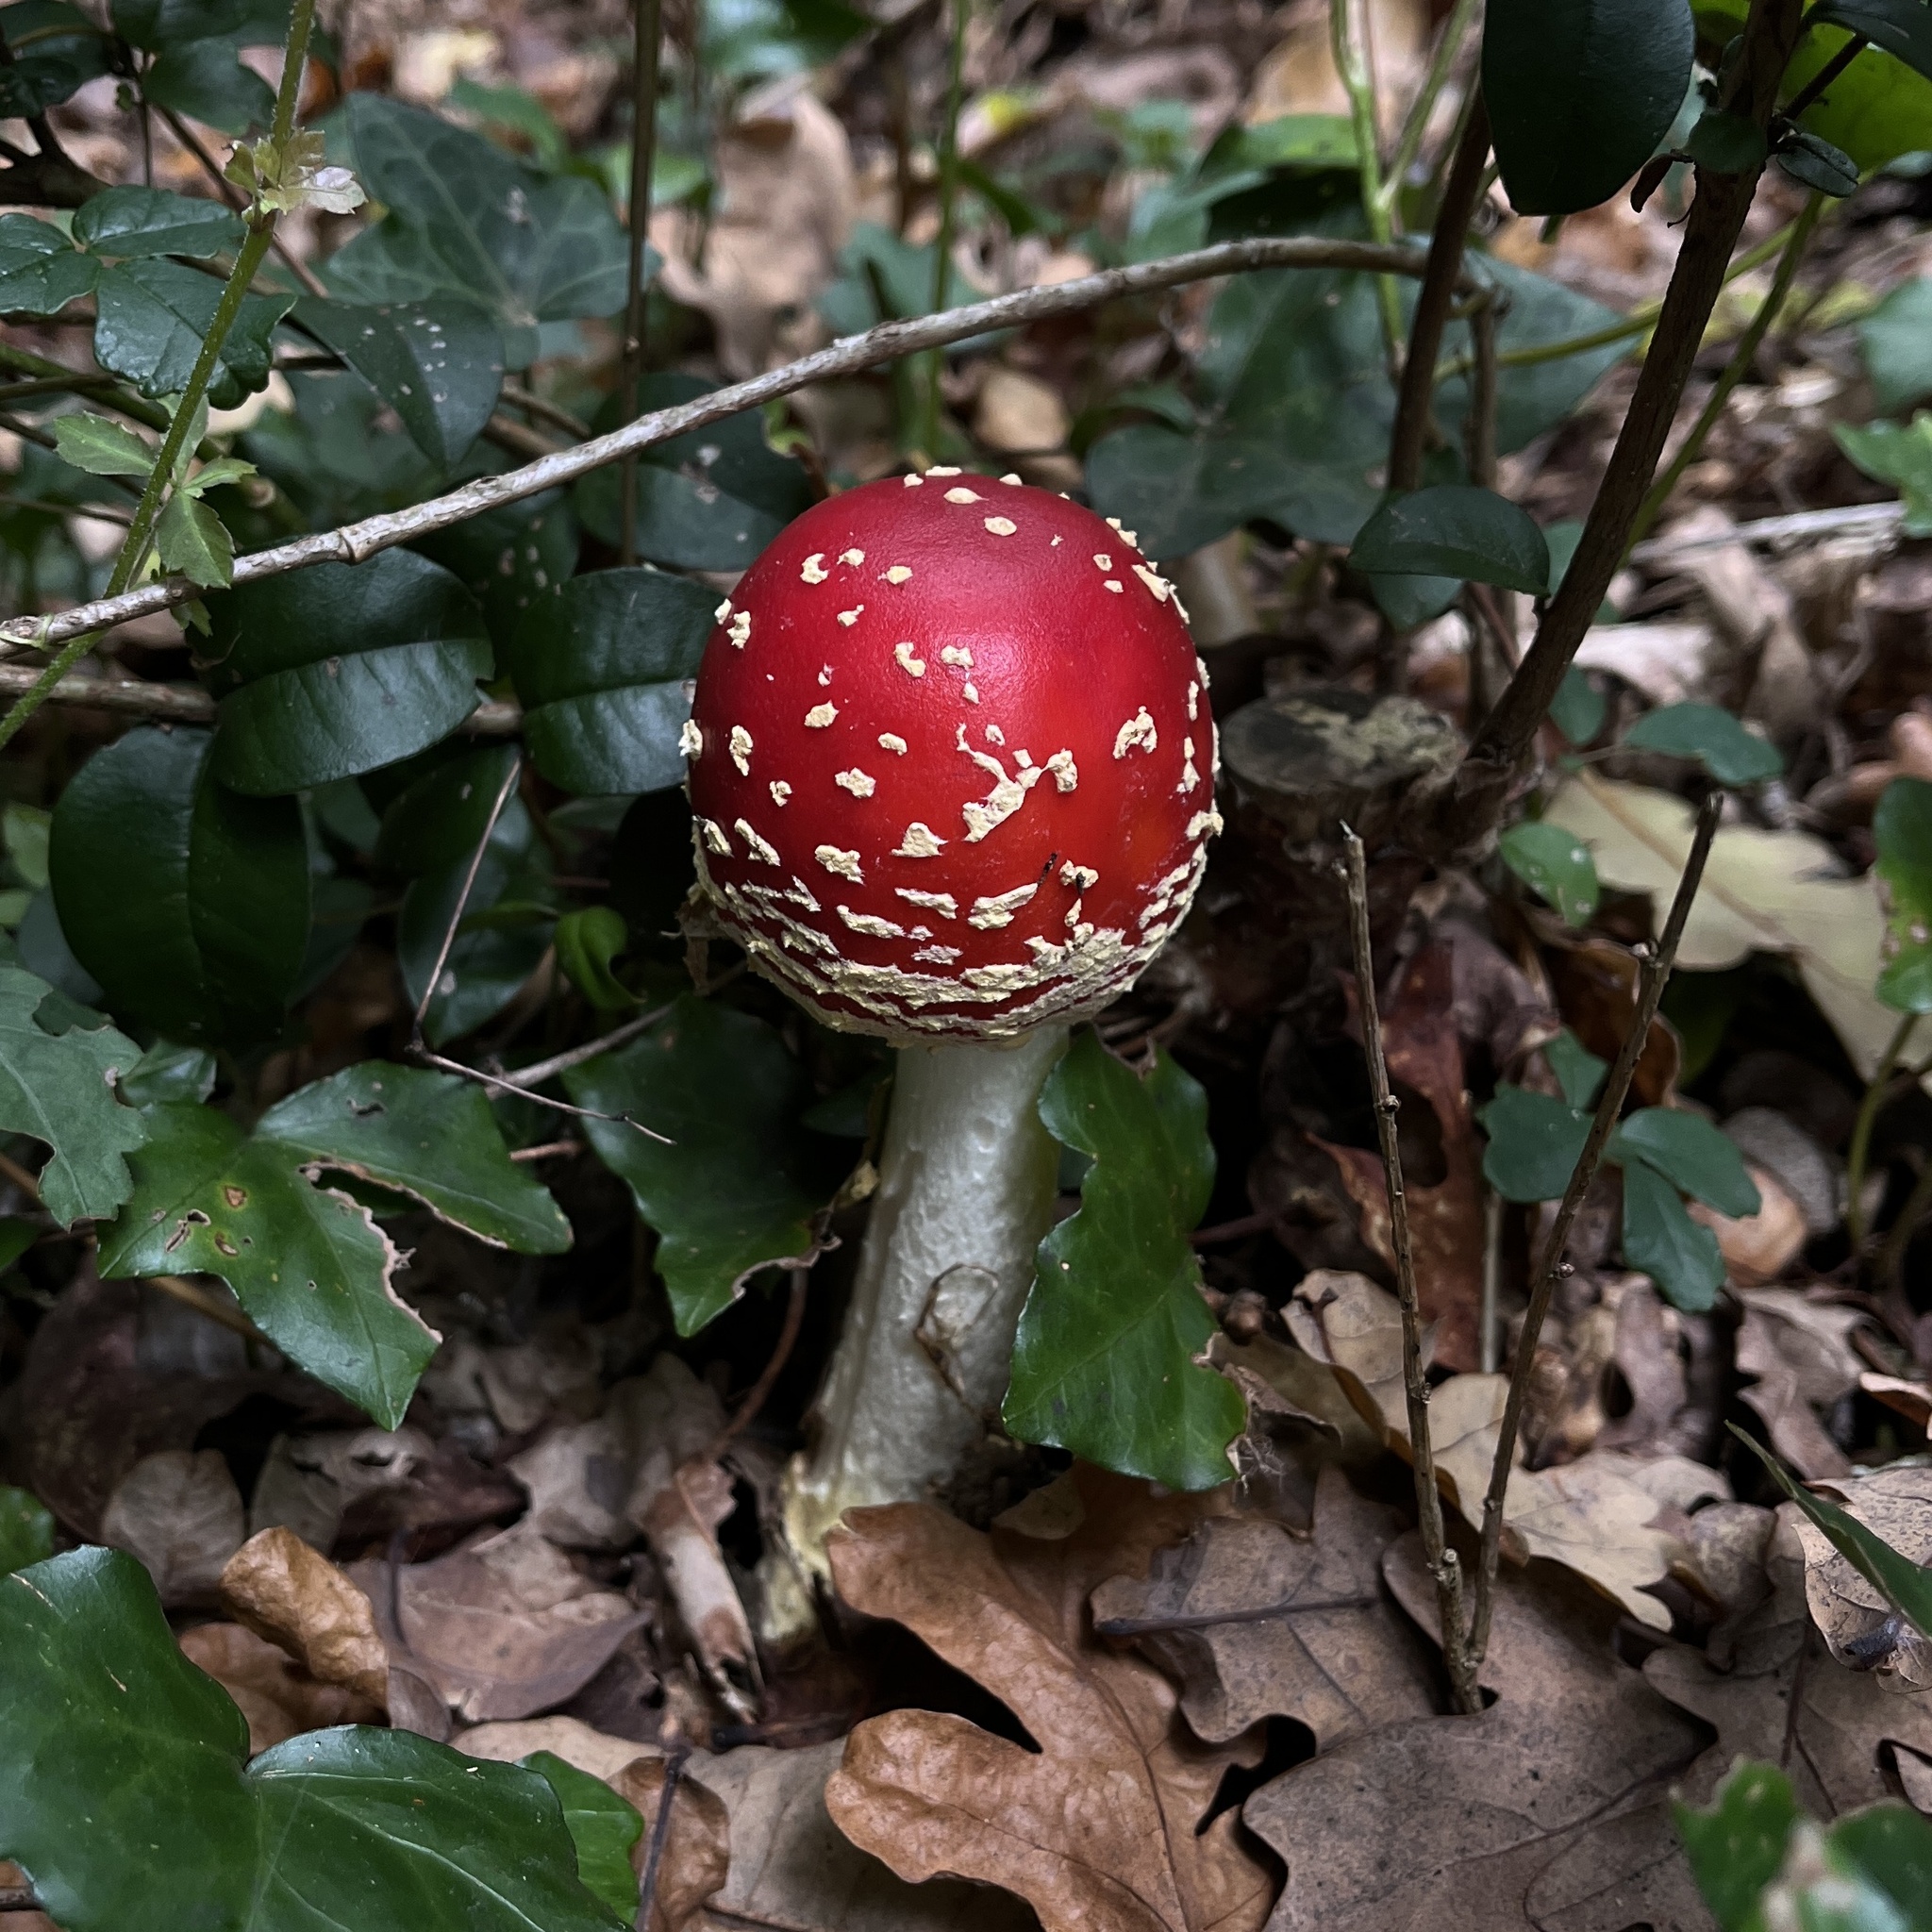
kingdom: Fungi
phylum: Basidiomycota
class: Agaricomycetes
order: Agaricales
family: Amanitaceae
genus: Amanita
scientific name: Amanita muscaria
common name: Fly agaric
